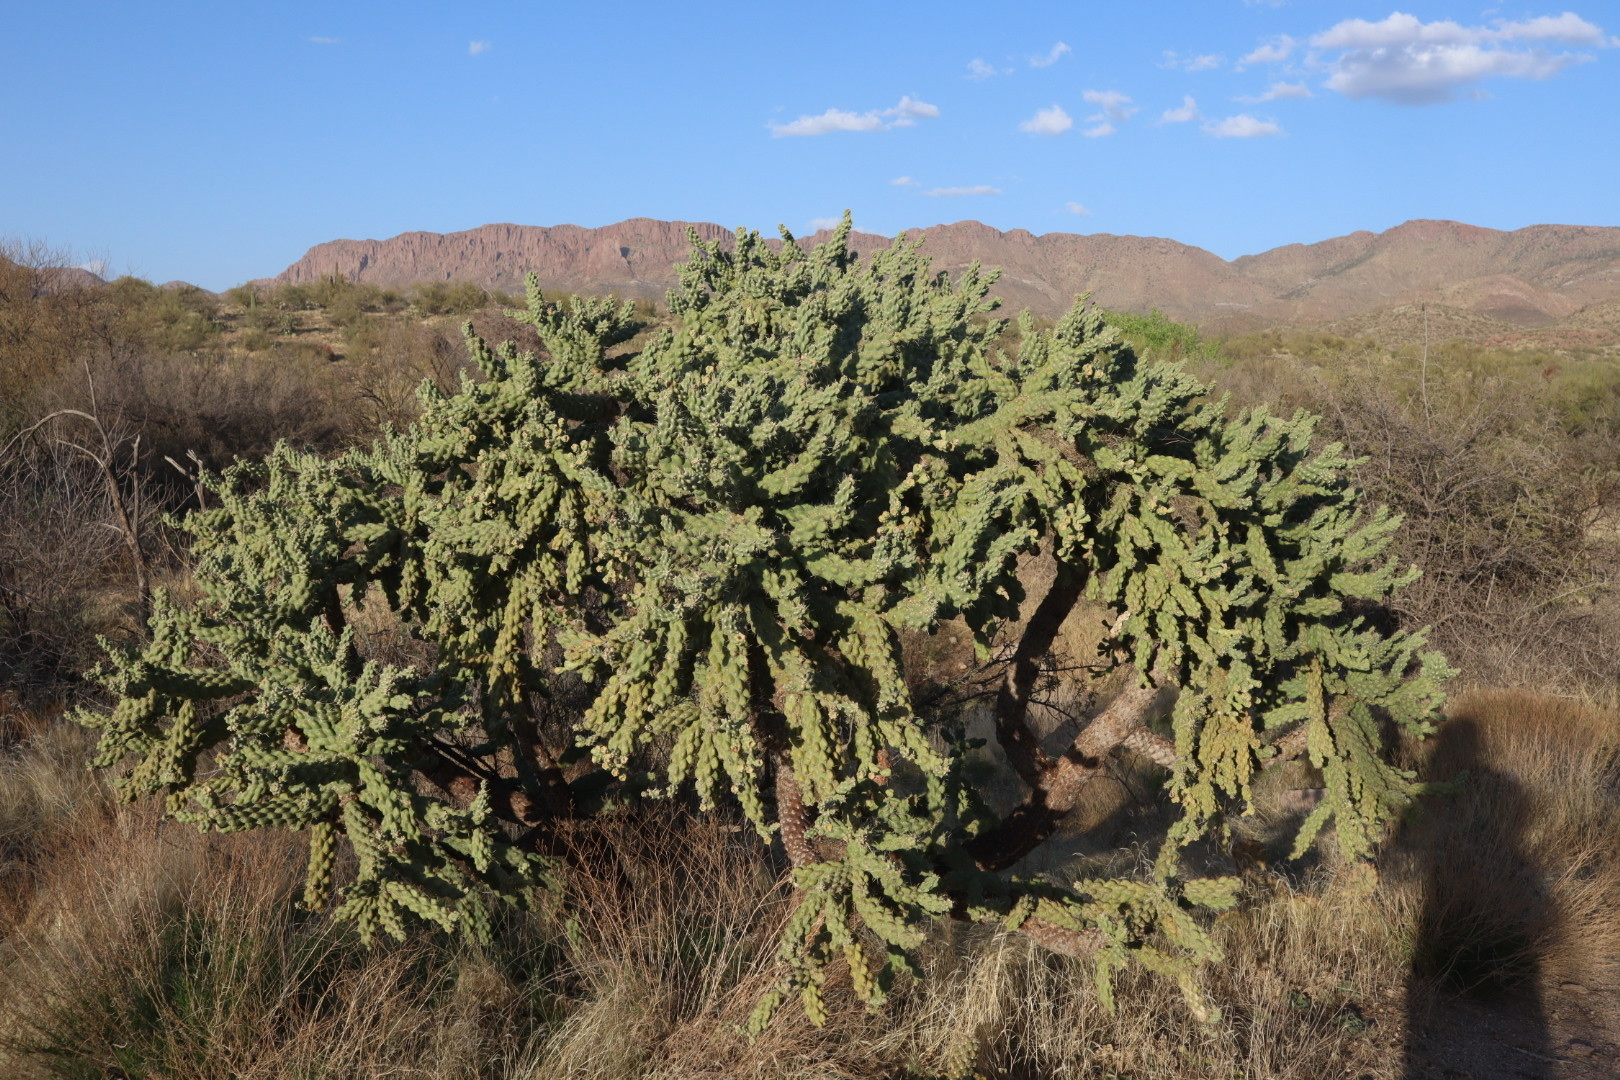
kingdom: Plantae
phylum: Tracheophyta
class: Magnoliopsida
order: Caryophyllales
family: Cactaceae
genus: Cylindropuntia
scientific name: Cylindropuntia fulgida
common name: Jumping cholla
